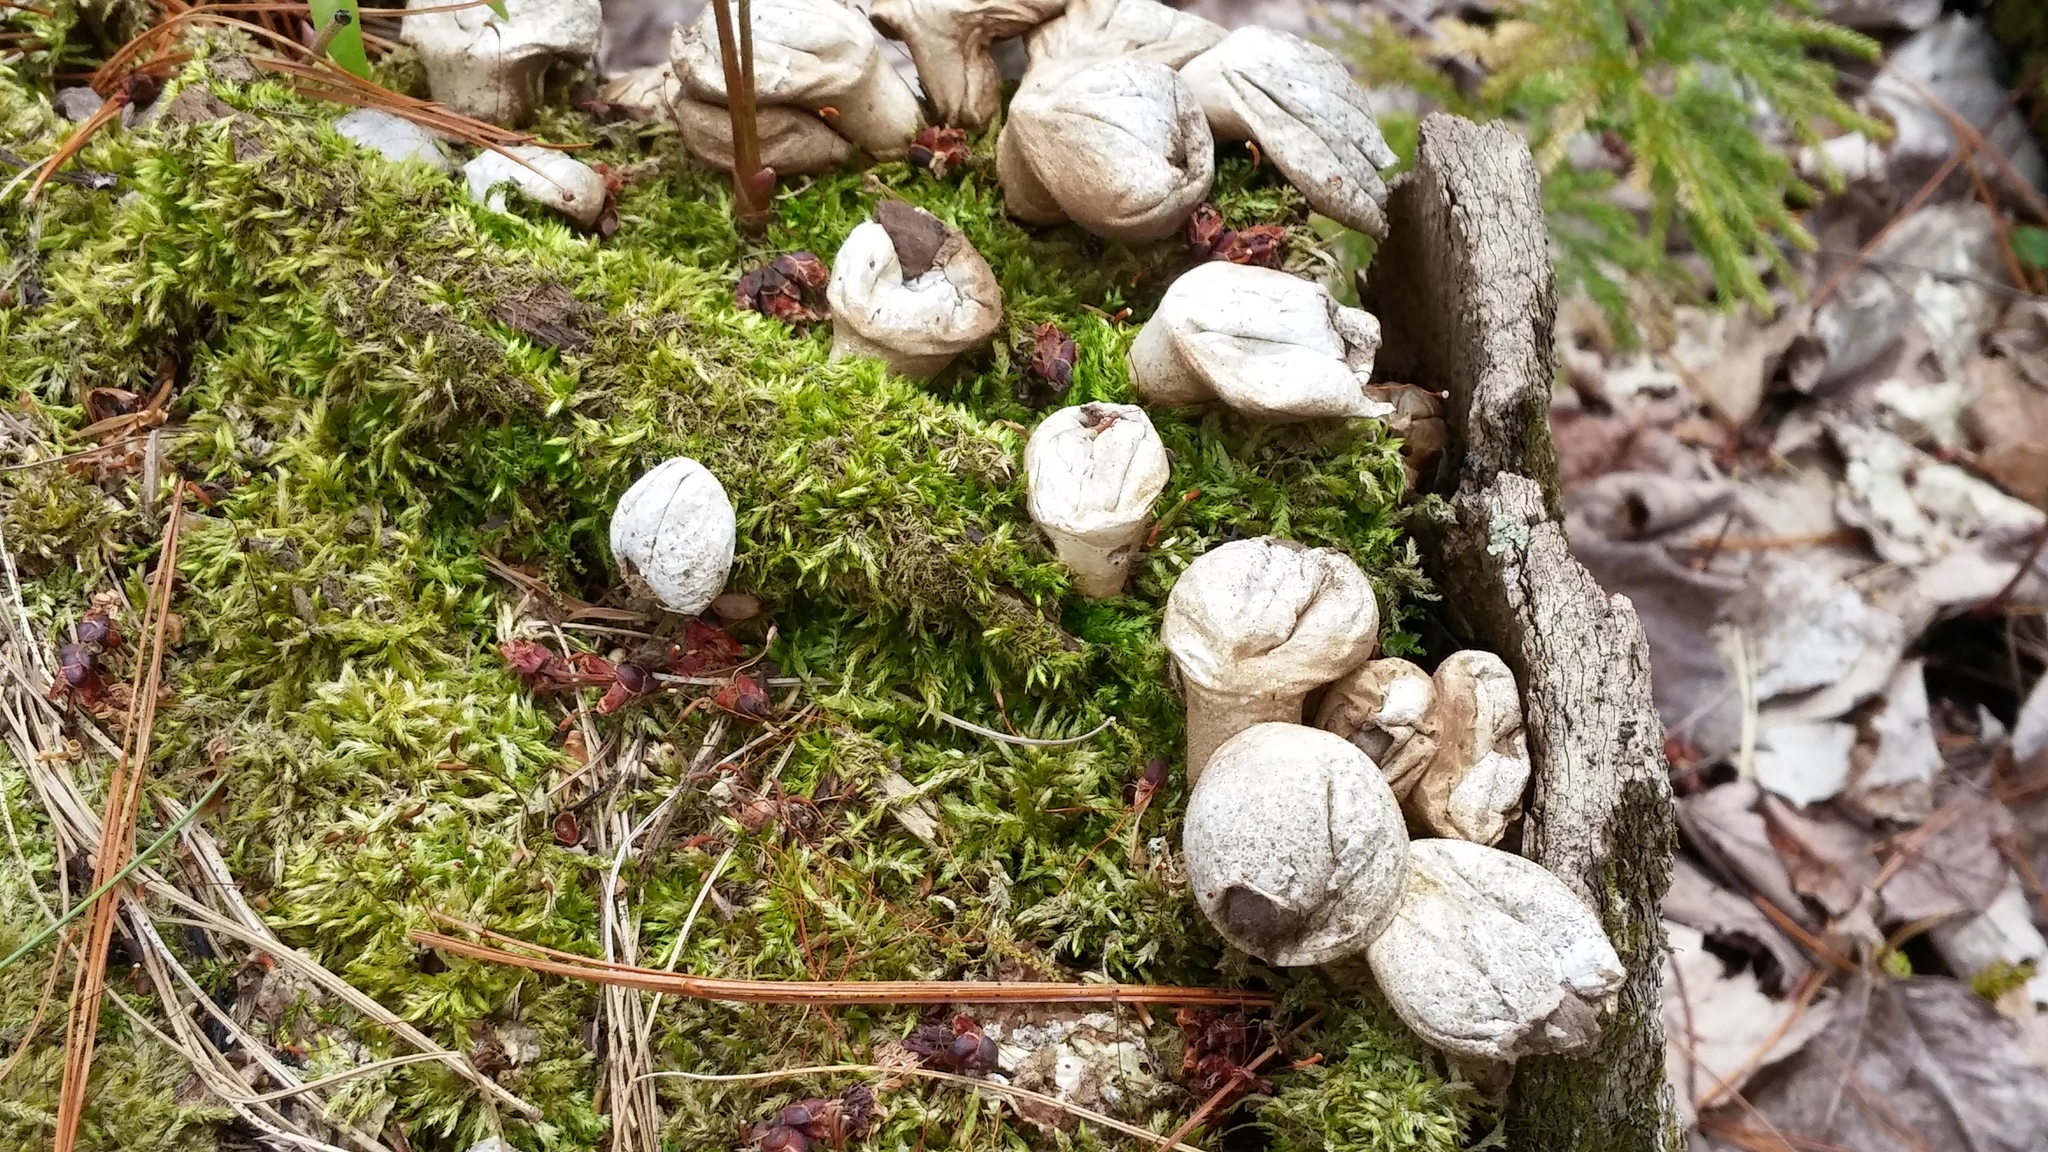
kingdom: Fungi
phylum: Basidiomycota
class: Agaricomycetes
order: Agaricales
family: Lycoperdaceae
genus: Lycoperdon
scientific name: Lycoperdon perlatum
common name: Common puffball
